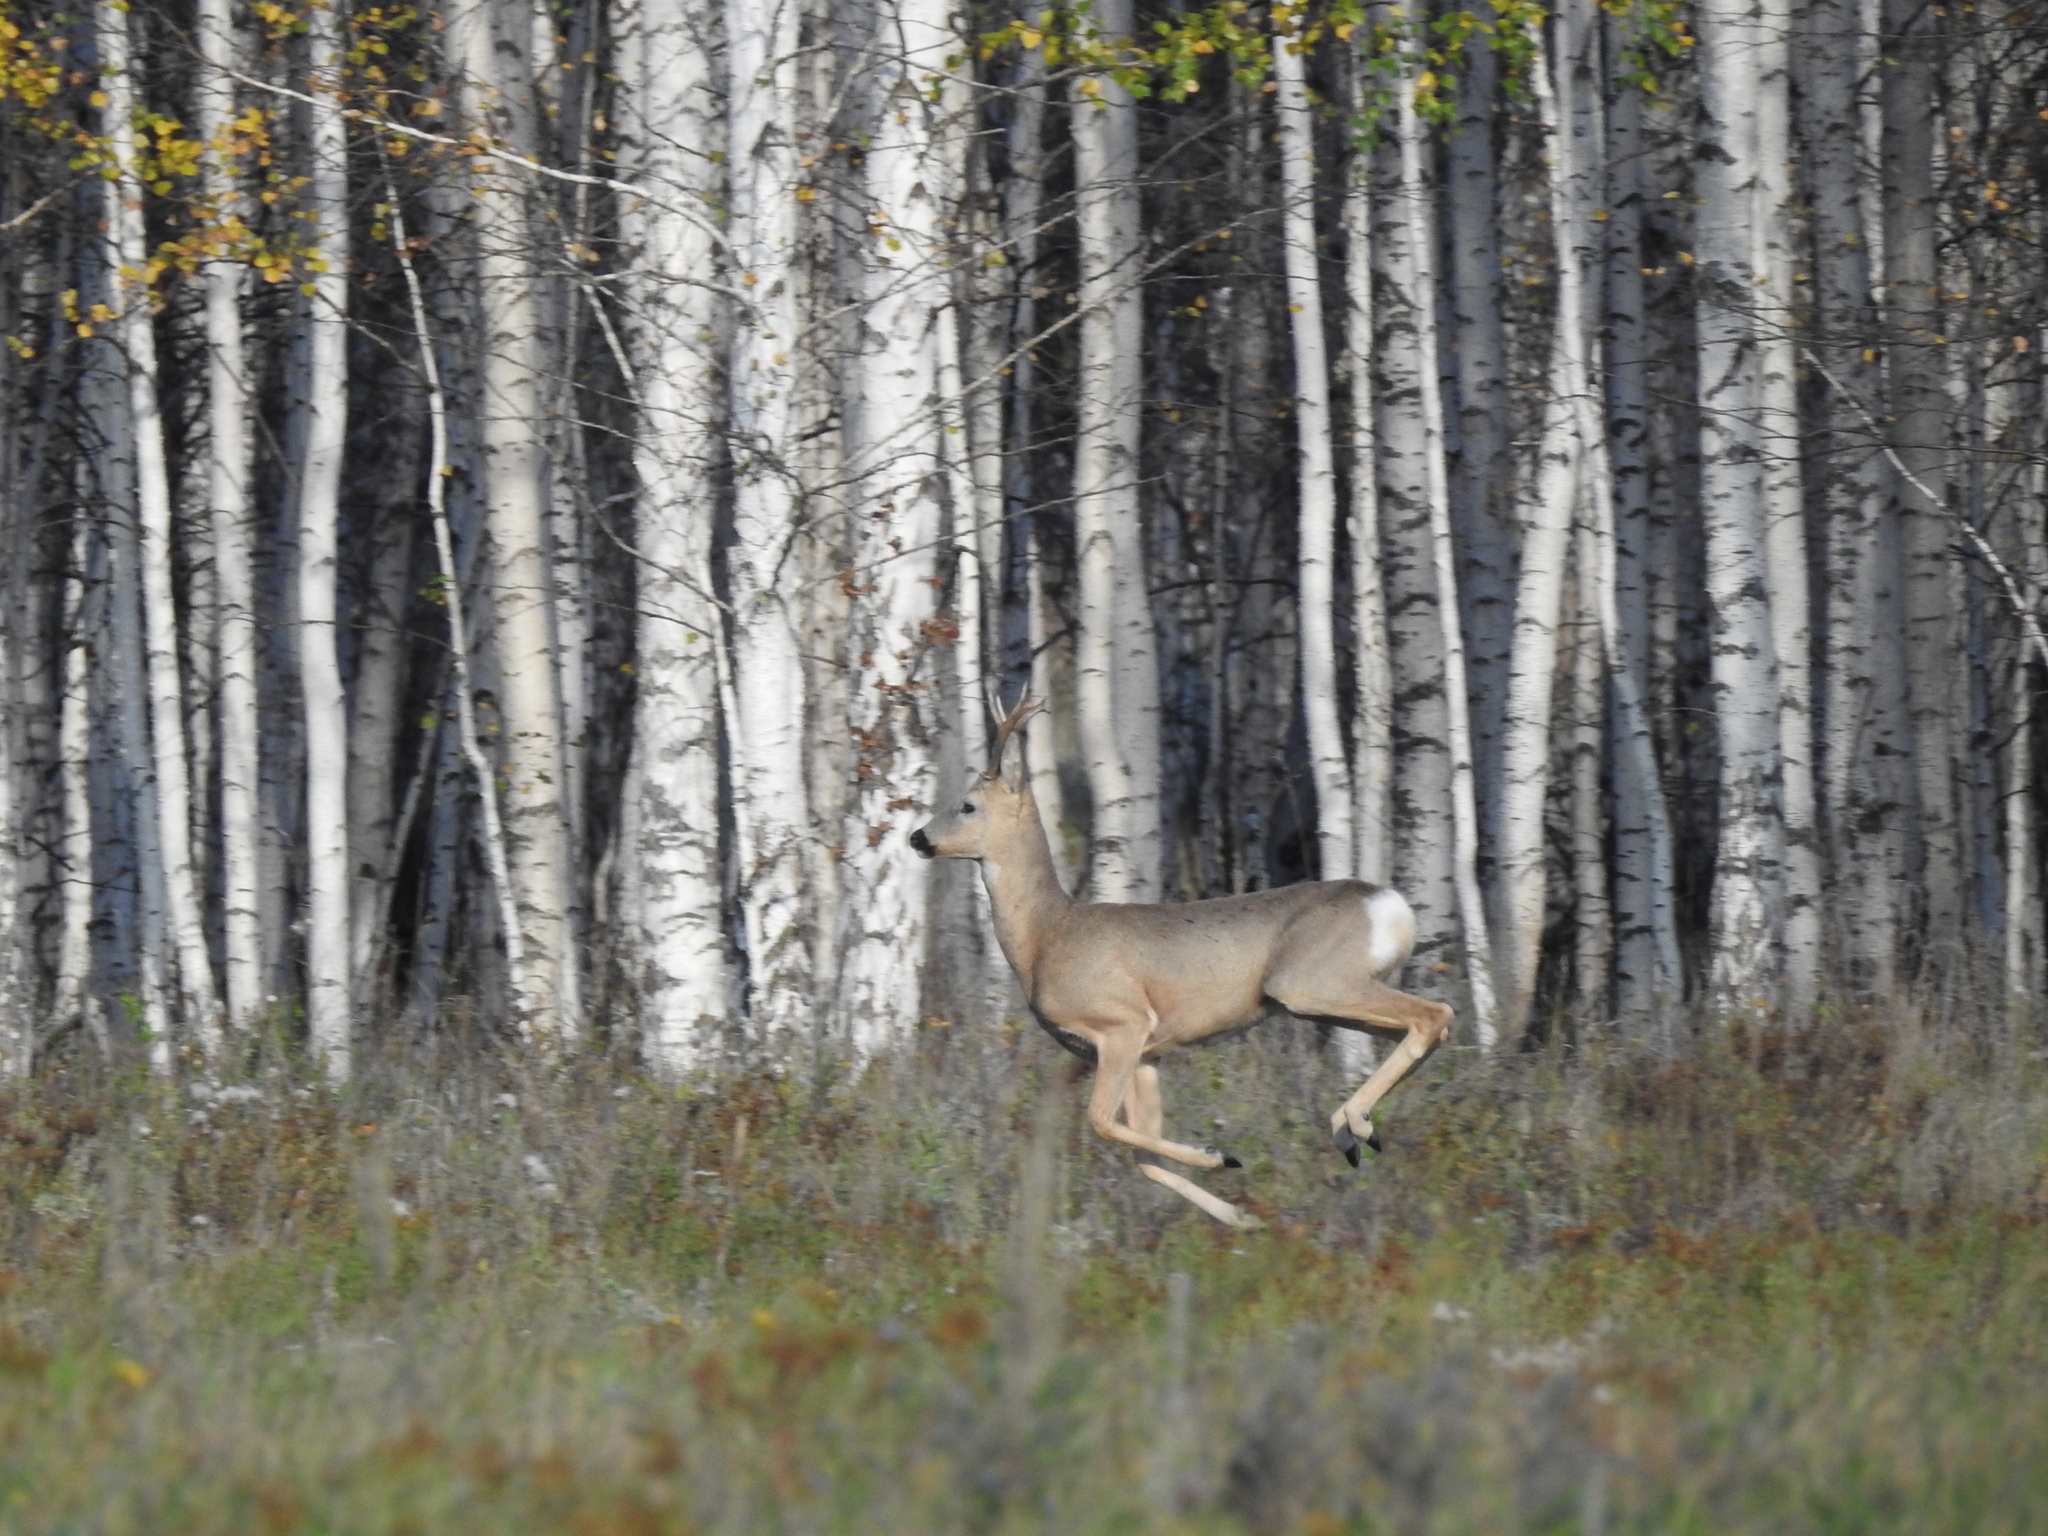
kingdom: Animalia
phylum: Chordata
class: Mammalia
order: Artiodactyla
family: Cervidae
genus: Capreolus
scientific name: Capreolus pygargus
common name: Siberian roe
